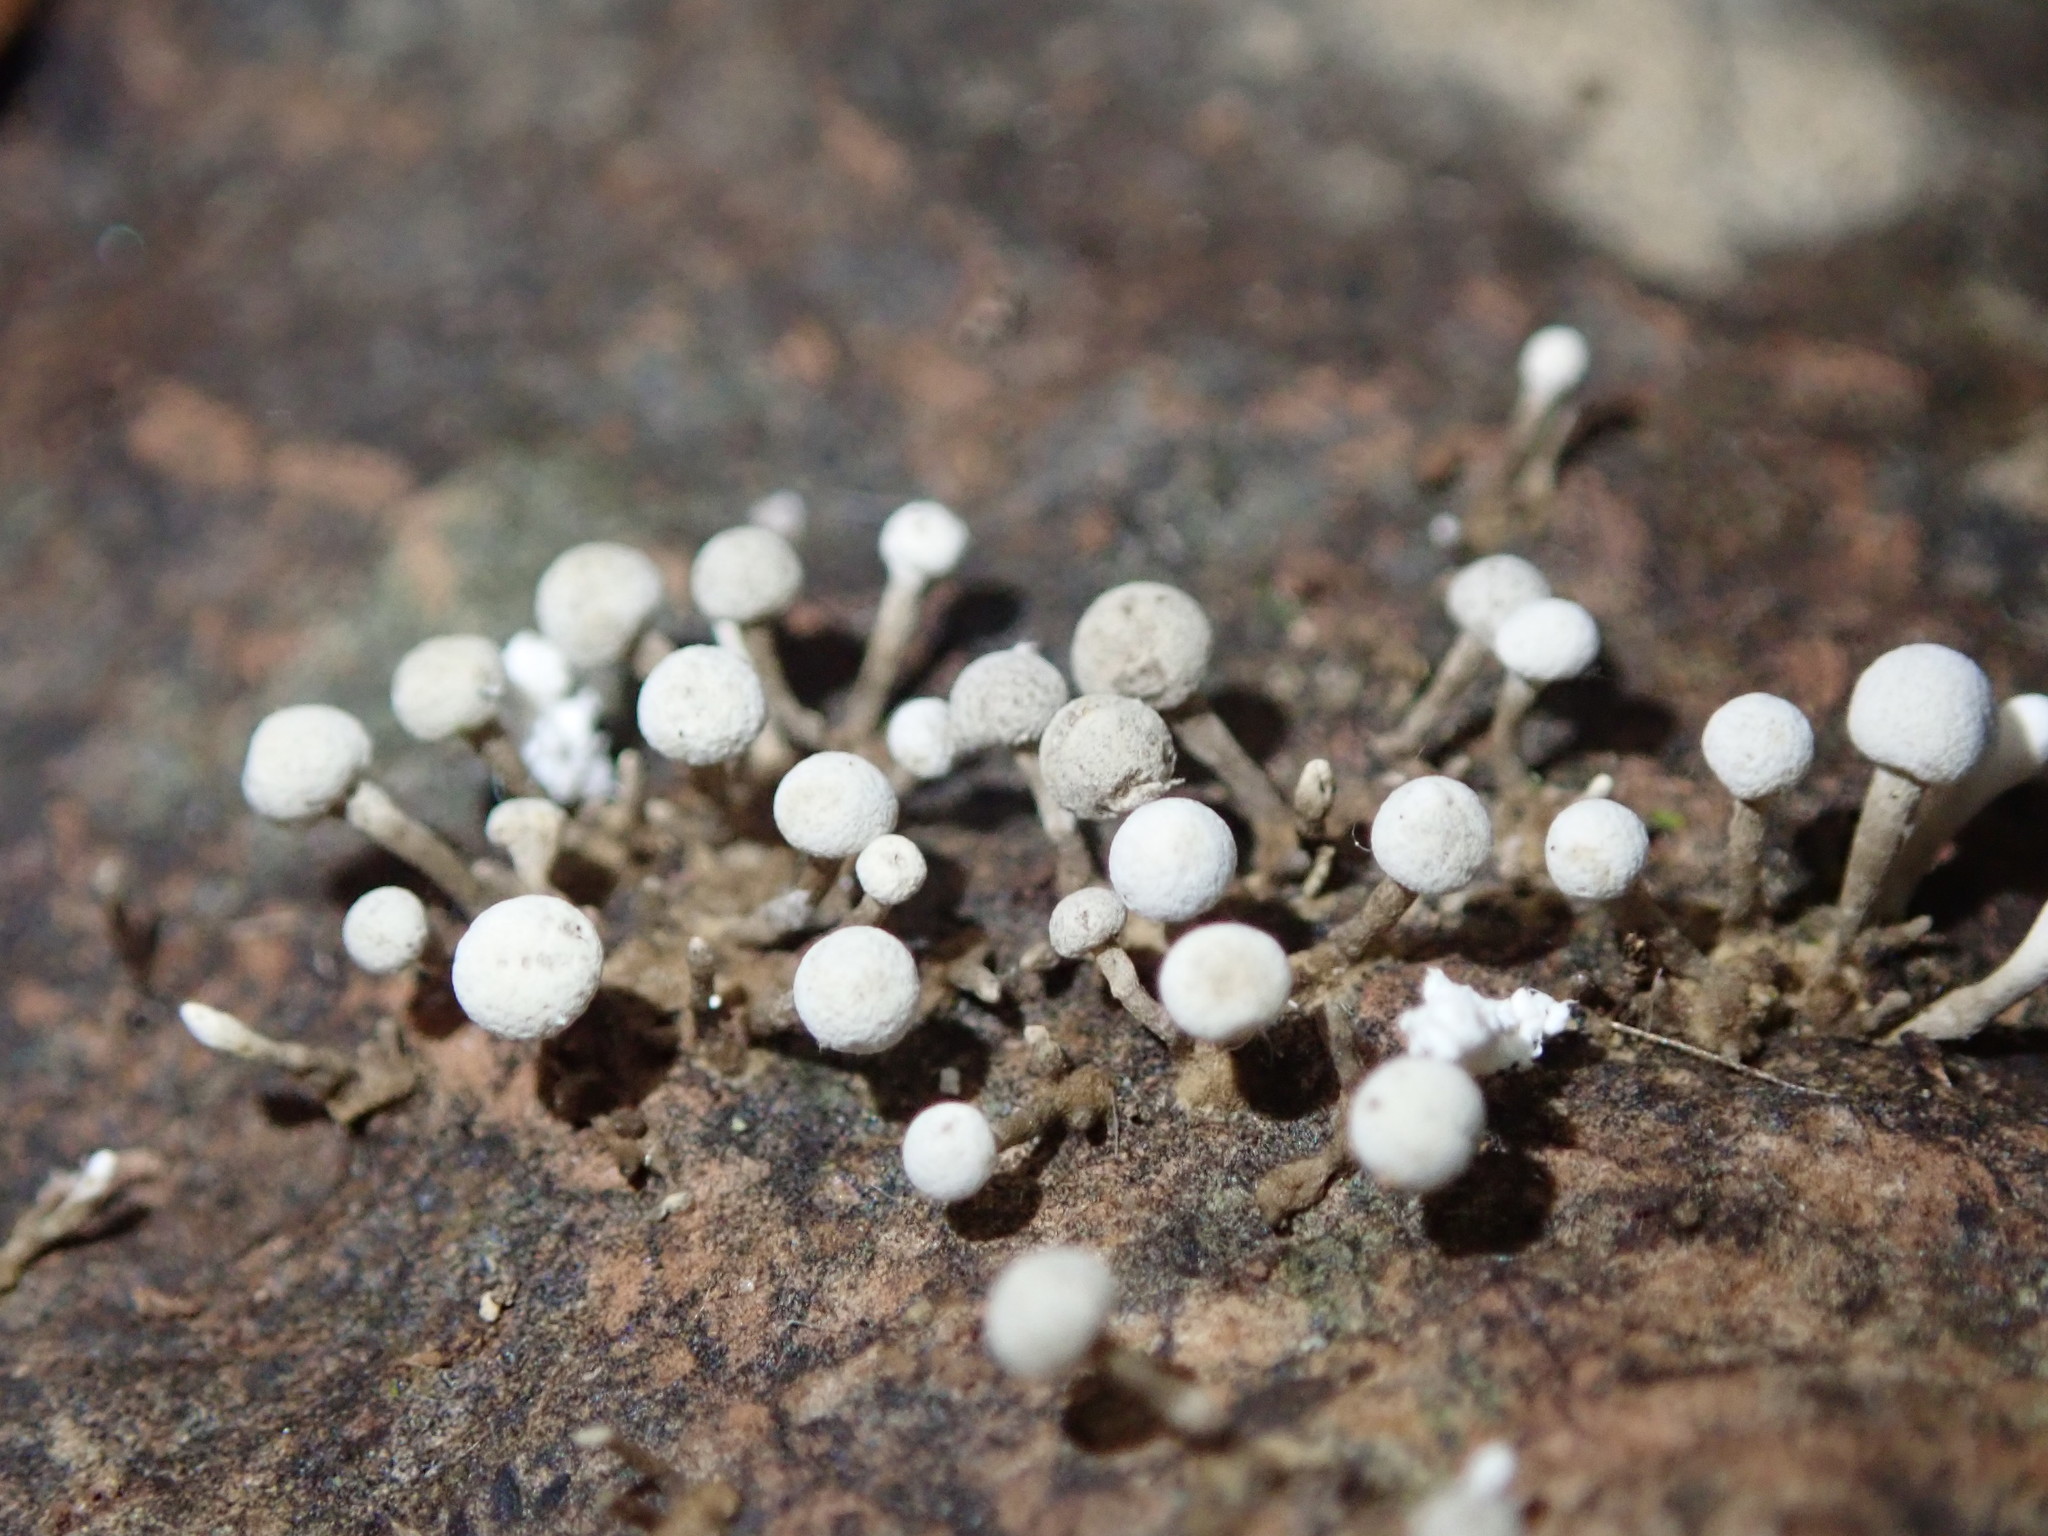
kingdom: Fungi
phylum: Basidiomycota
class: Atractiellomycetes
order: Atractiellales
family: Phleogenaceae
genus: Phleogena
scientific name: Phleogena faginea
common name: Fenugreek stalkball
